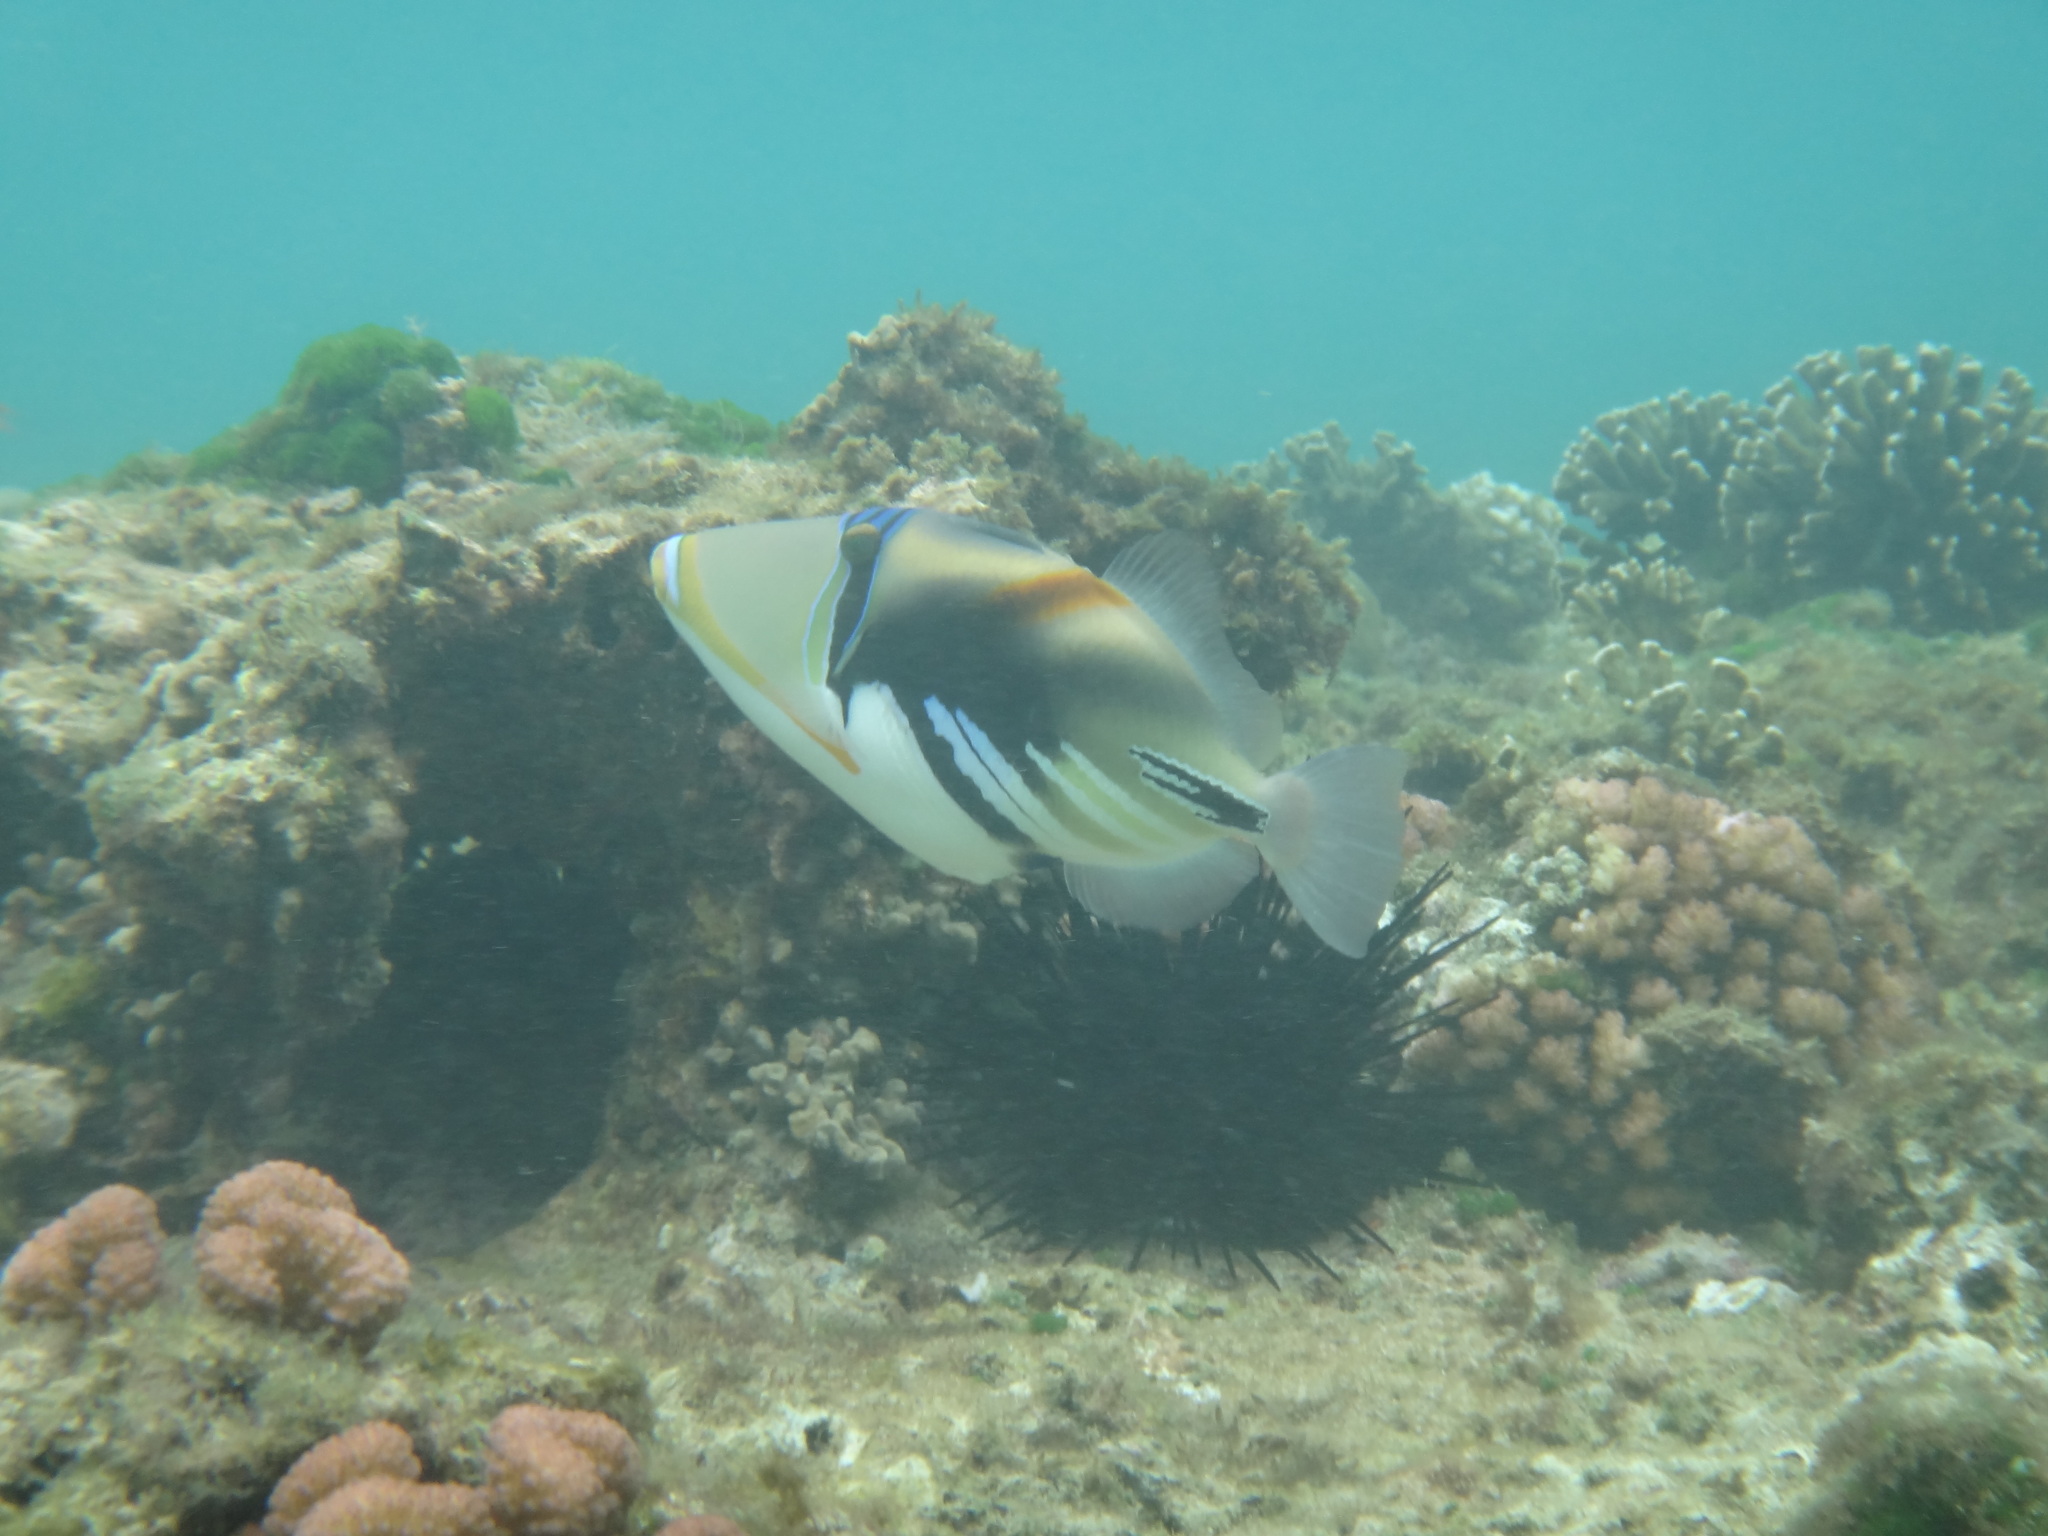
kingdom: Animalia
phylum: Chordata
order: Tetraodontiformes
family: Balistidae
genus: Rhinecanthus
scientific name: Rhinecanthus aculeatus
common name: White-banded triggerfish
